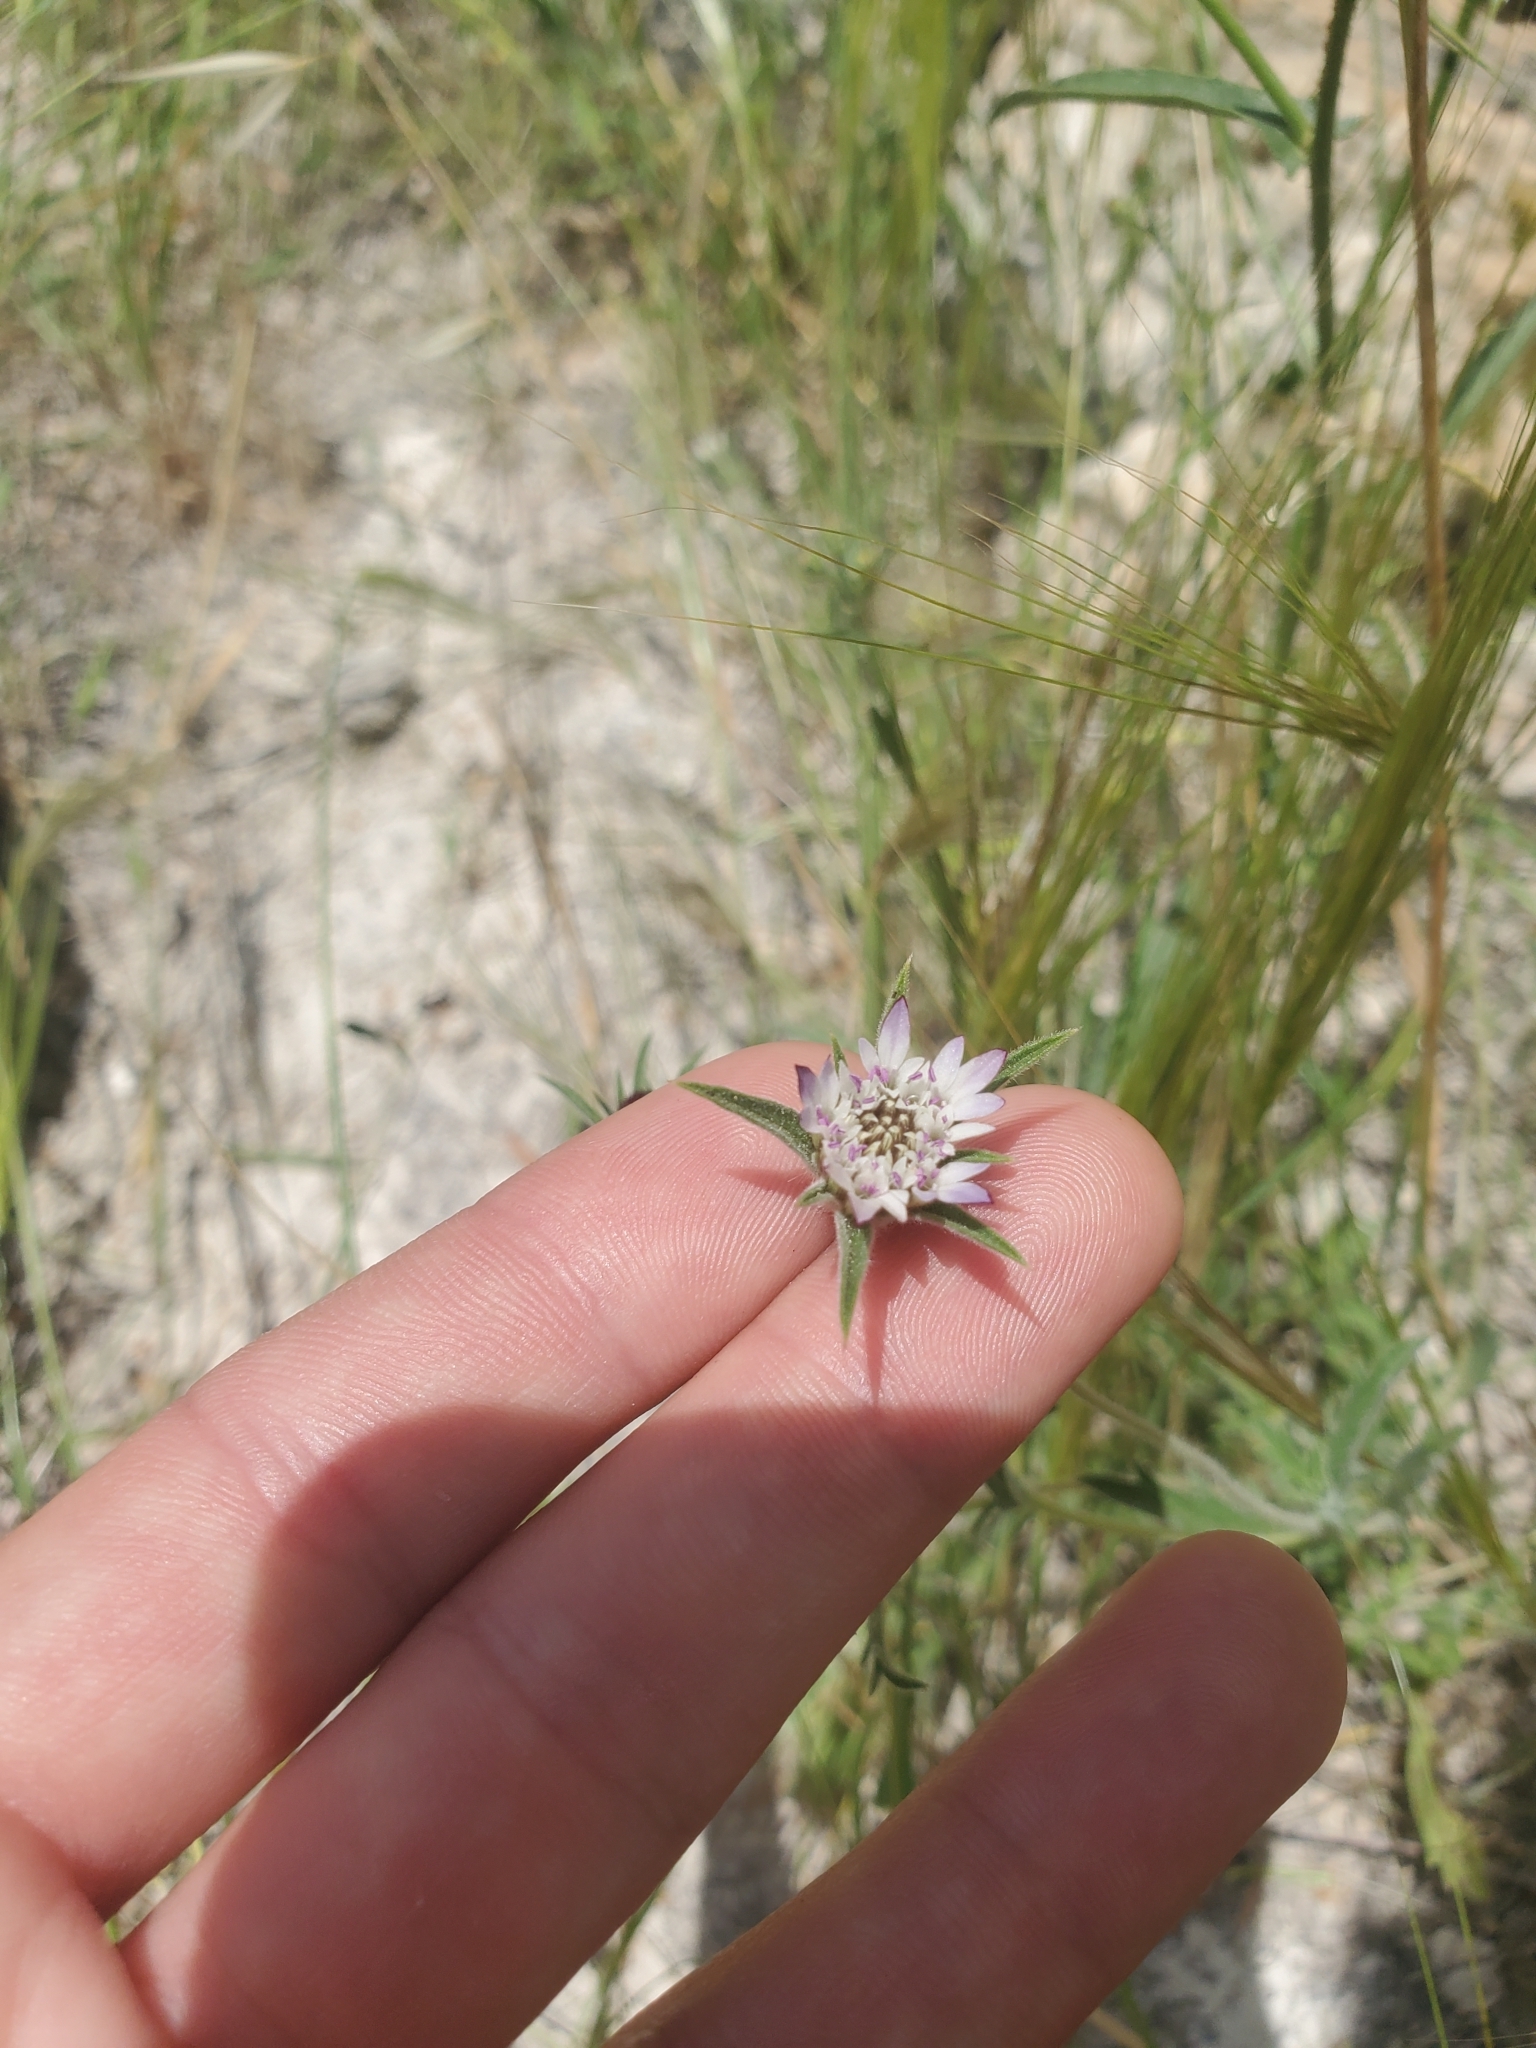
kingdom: Plantae
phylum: Tracheophyta
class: Magnoliopsida
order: Dipsacales
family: Caprifoliaceae
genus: Pterocephalus
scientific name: Pterocephalus brevis
